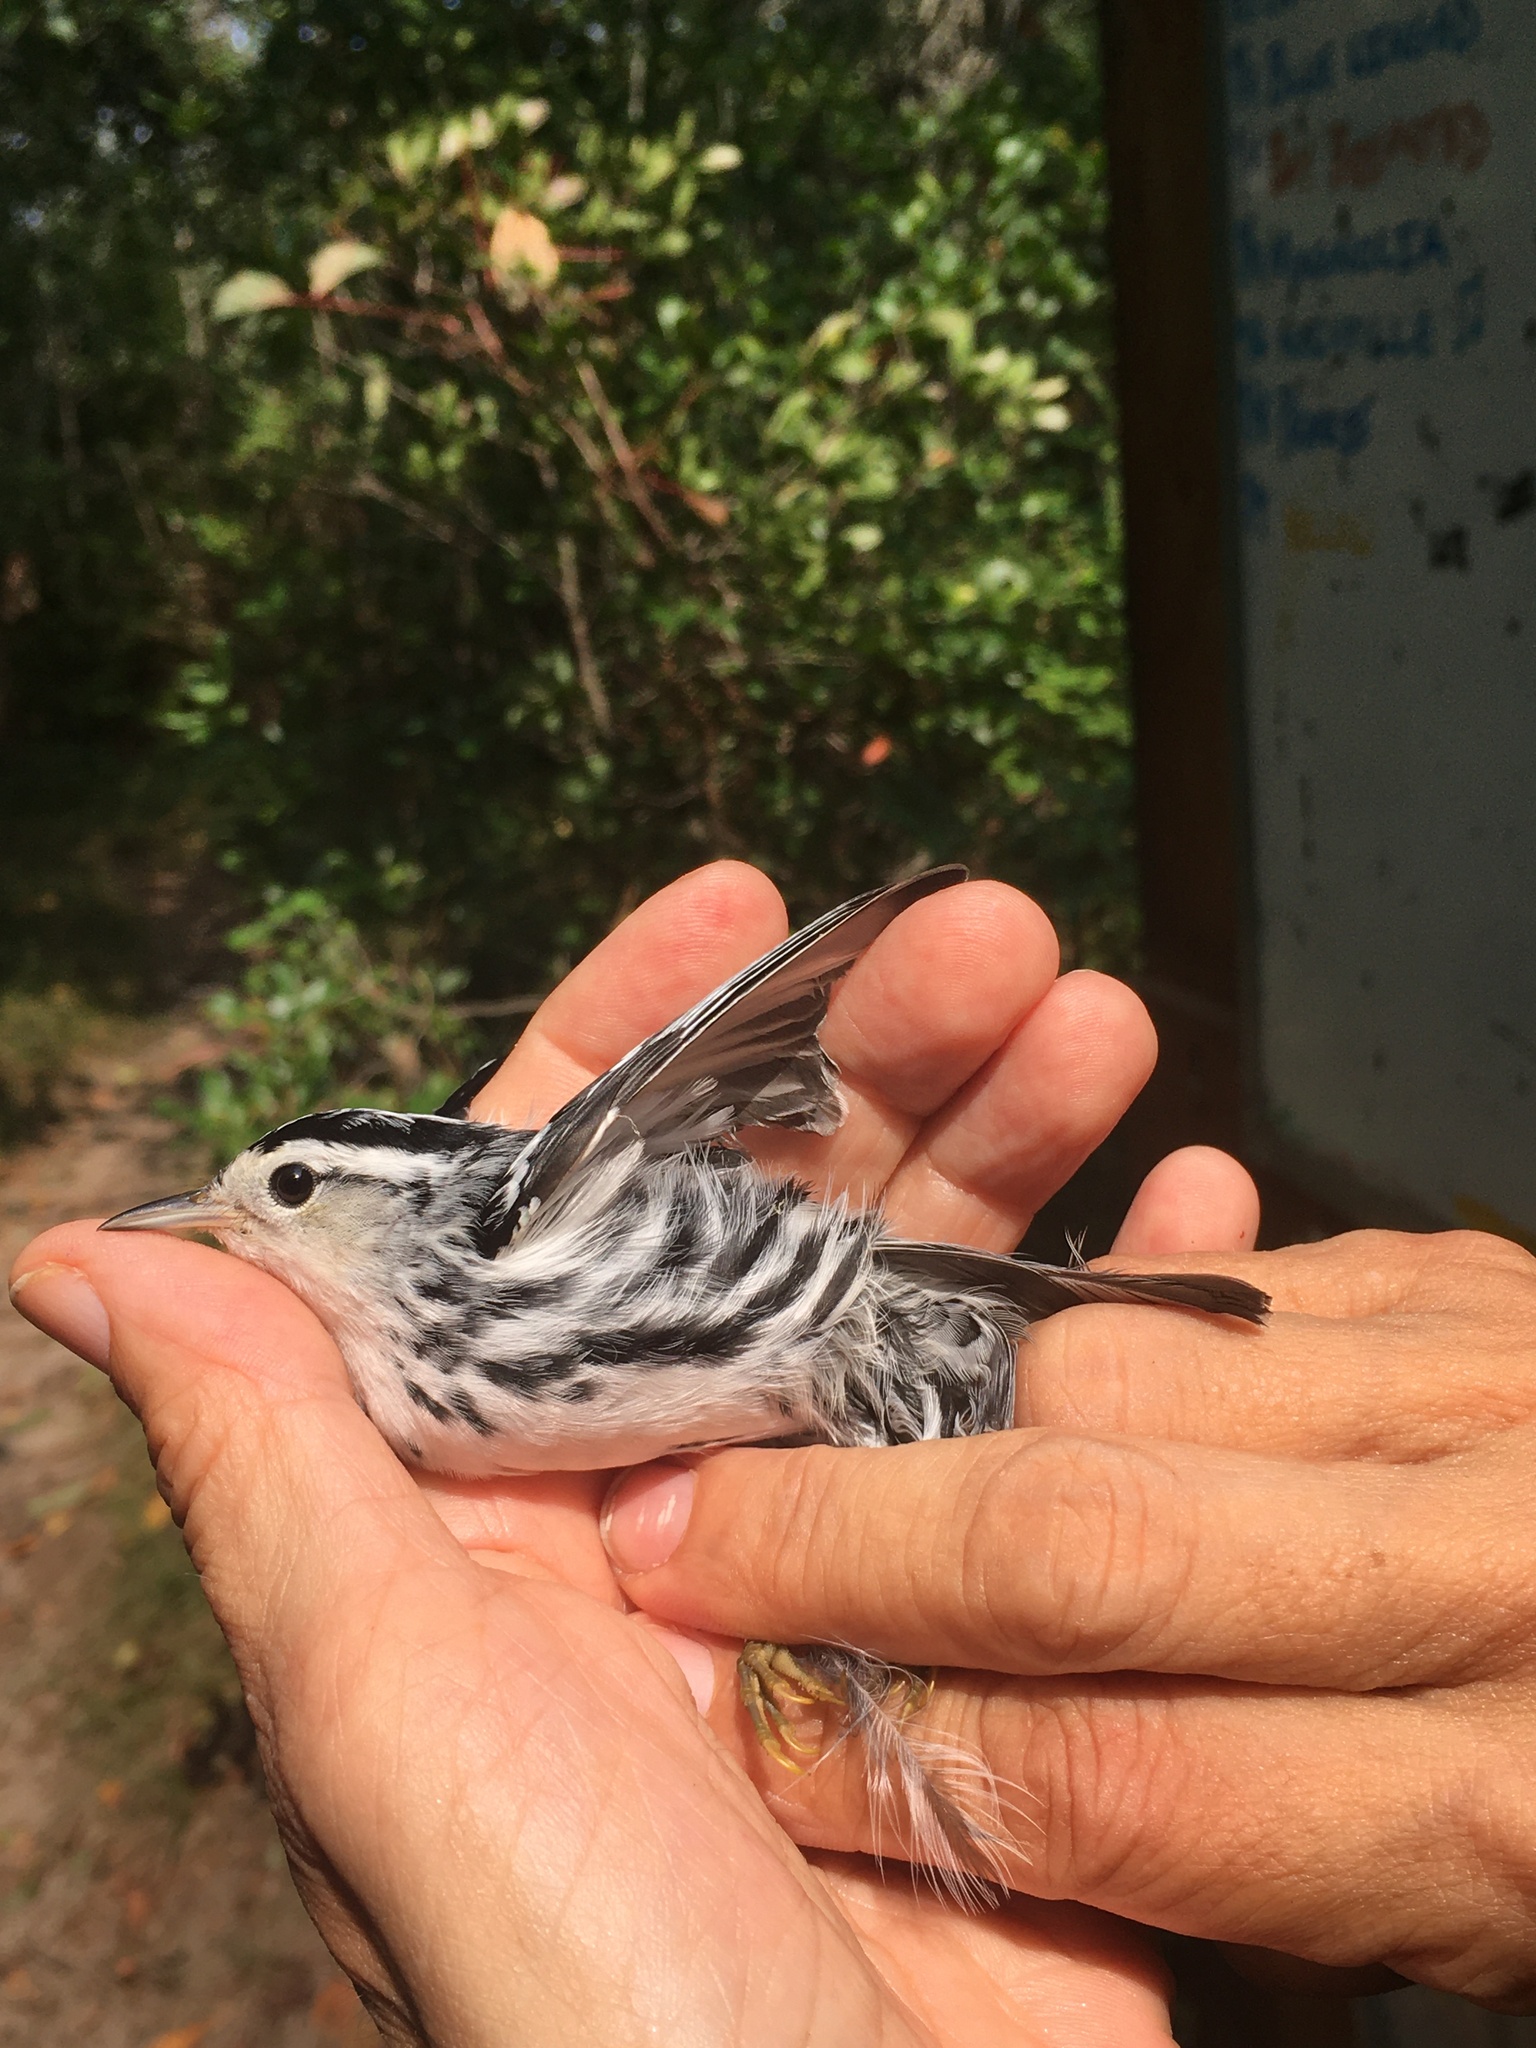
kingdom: Animalia
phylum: Chordata
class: Aves
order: Passeriformes
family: Parulidae
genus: Mniotilta
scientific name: Mniotilta varia
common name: Black-and-white warbler
